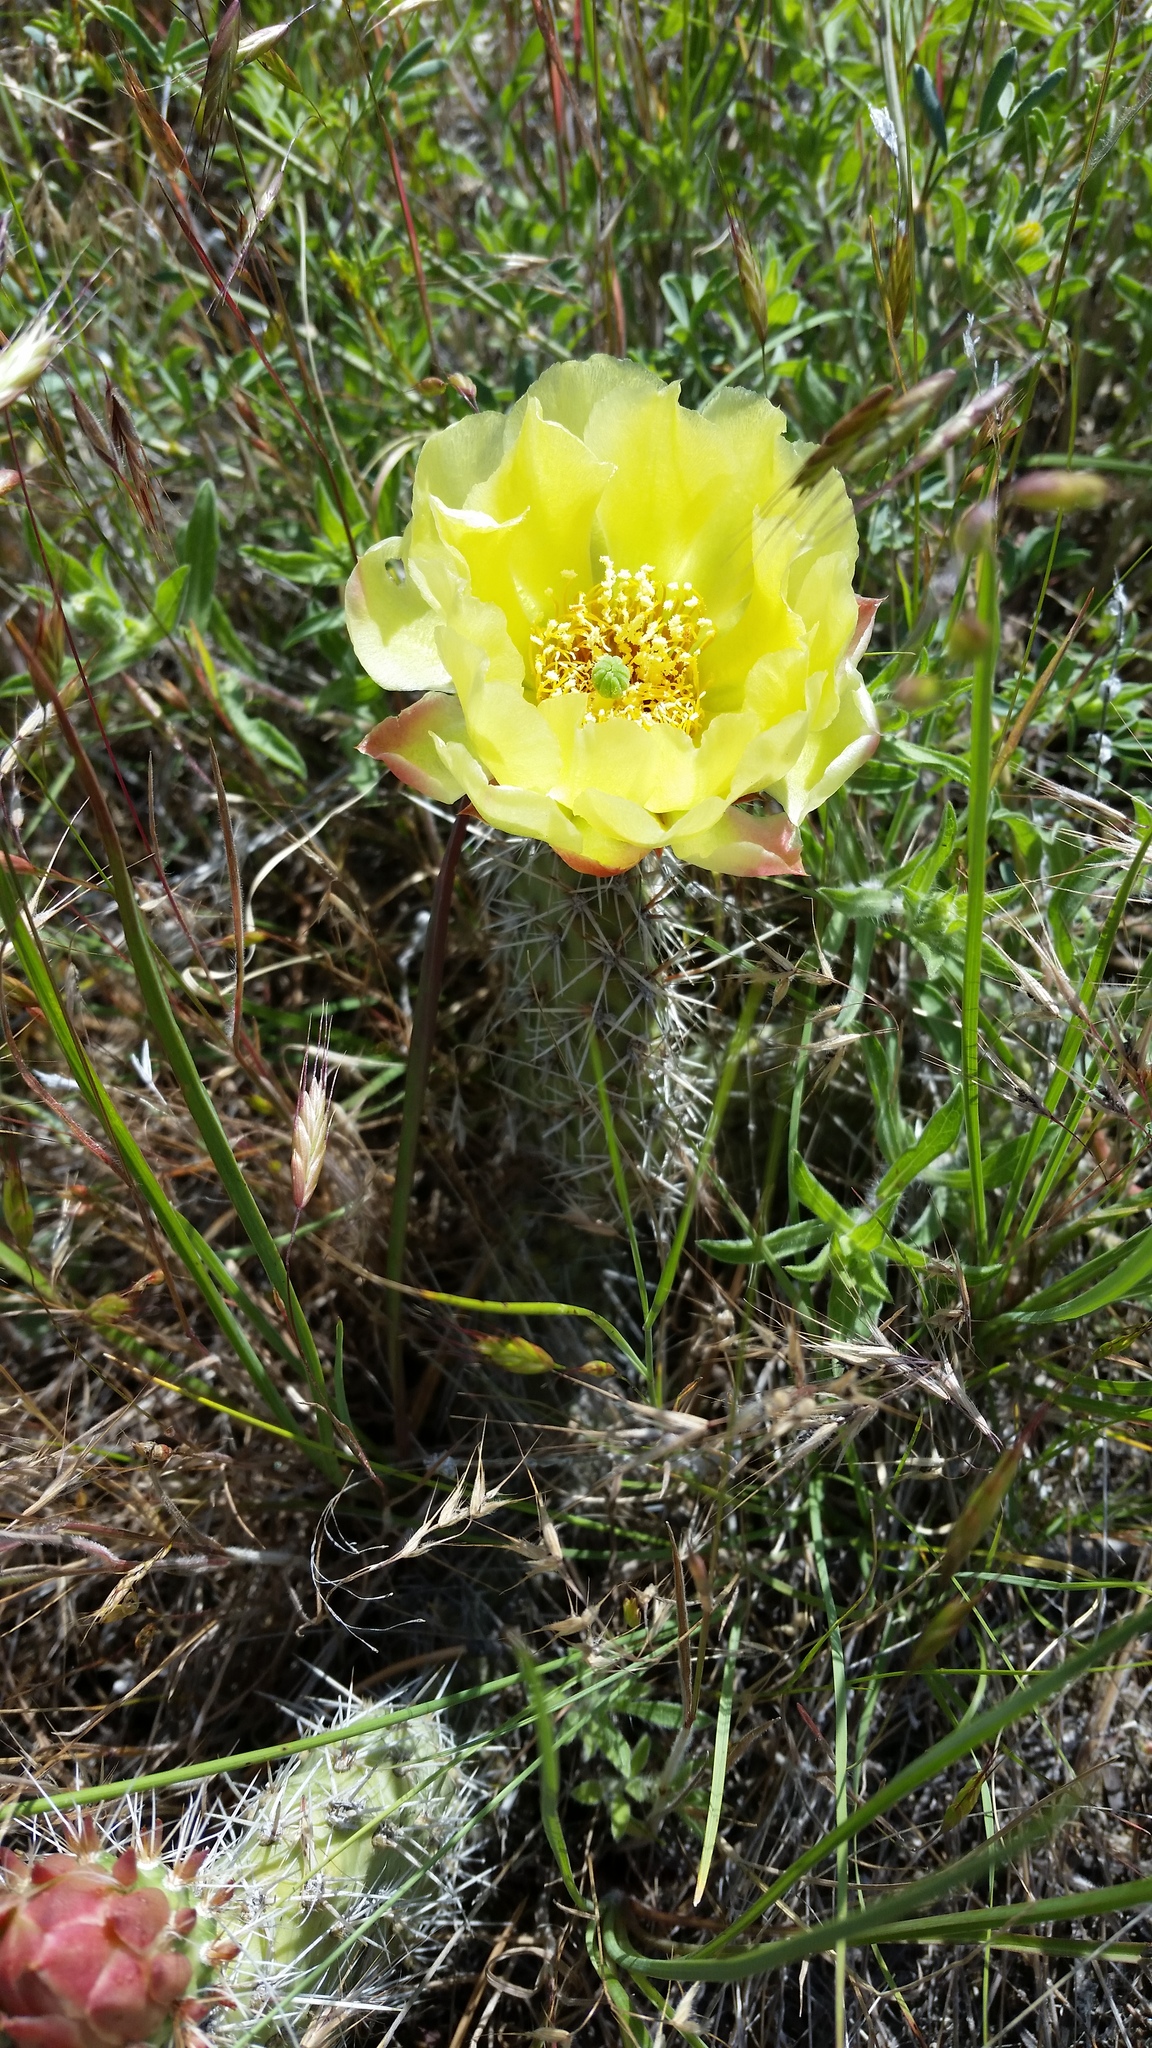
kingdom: Plantae
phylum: Tracheophyta
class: Magnoliopsida
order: Caryophyllales
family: Cactaceae
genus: Opuntia
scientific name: Opuntia polyacantha
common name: Plains prickly-pear
